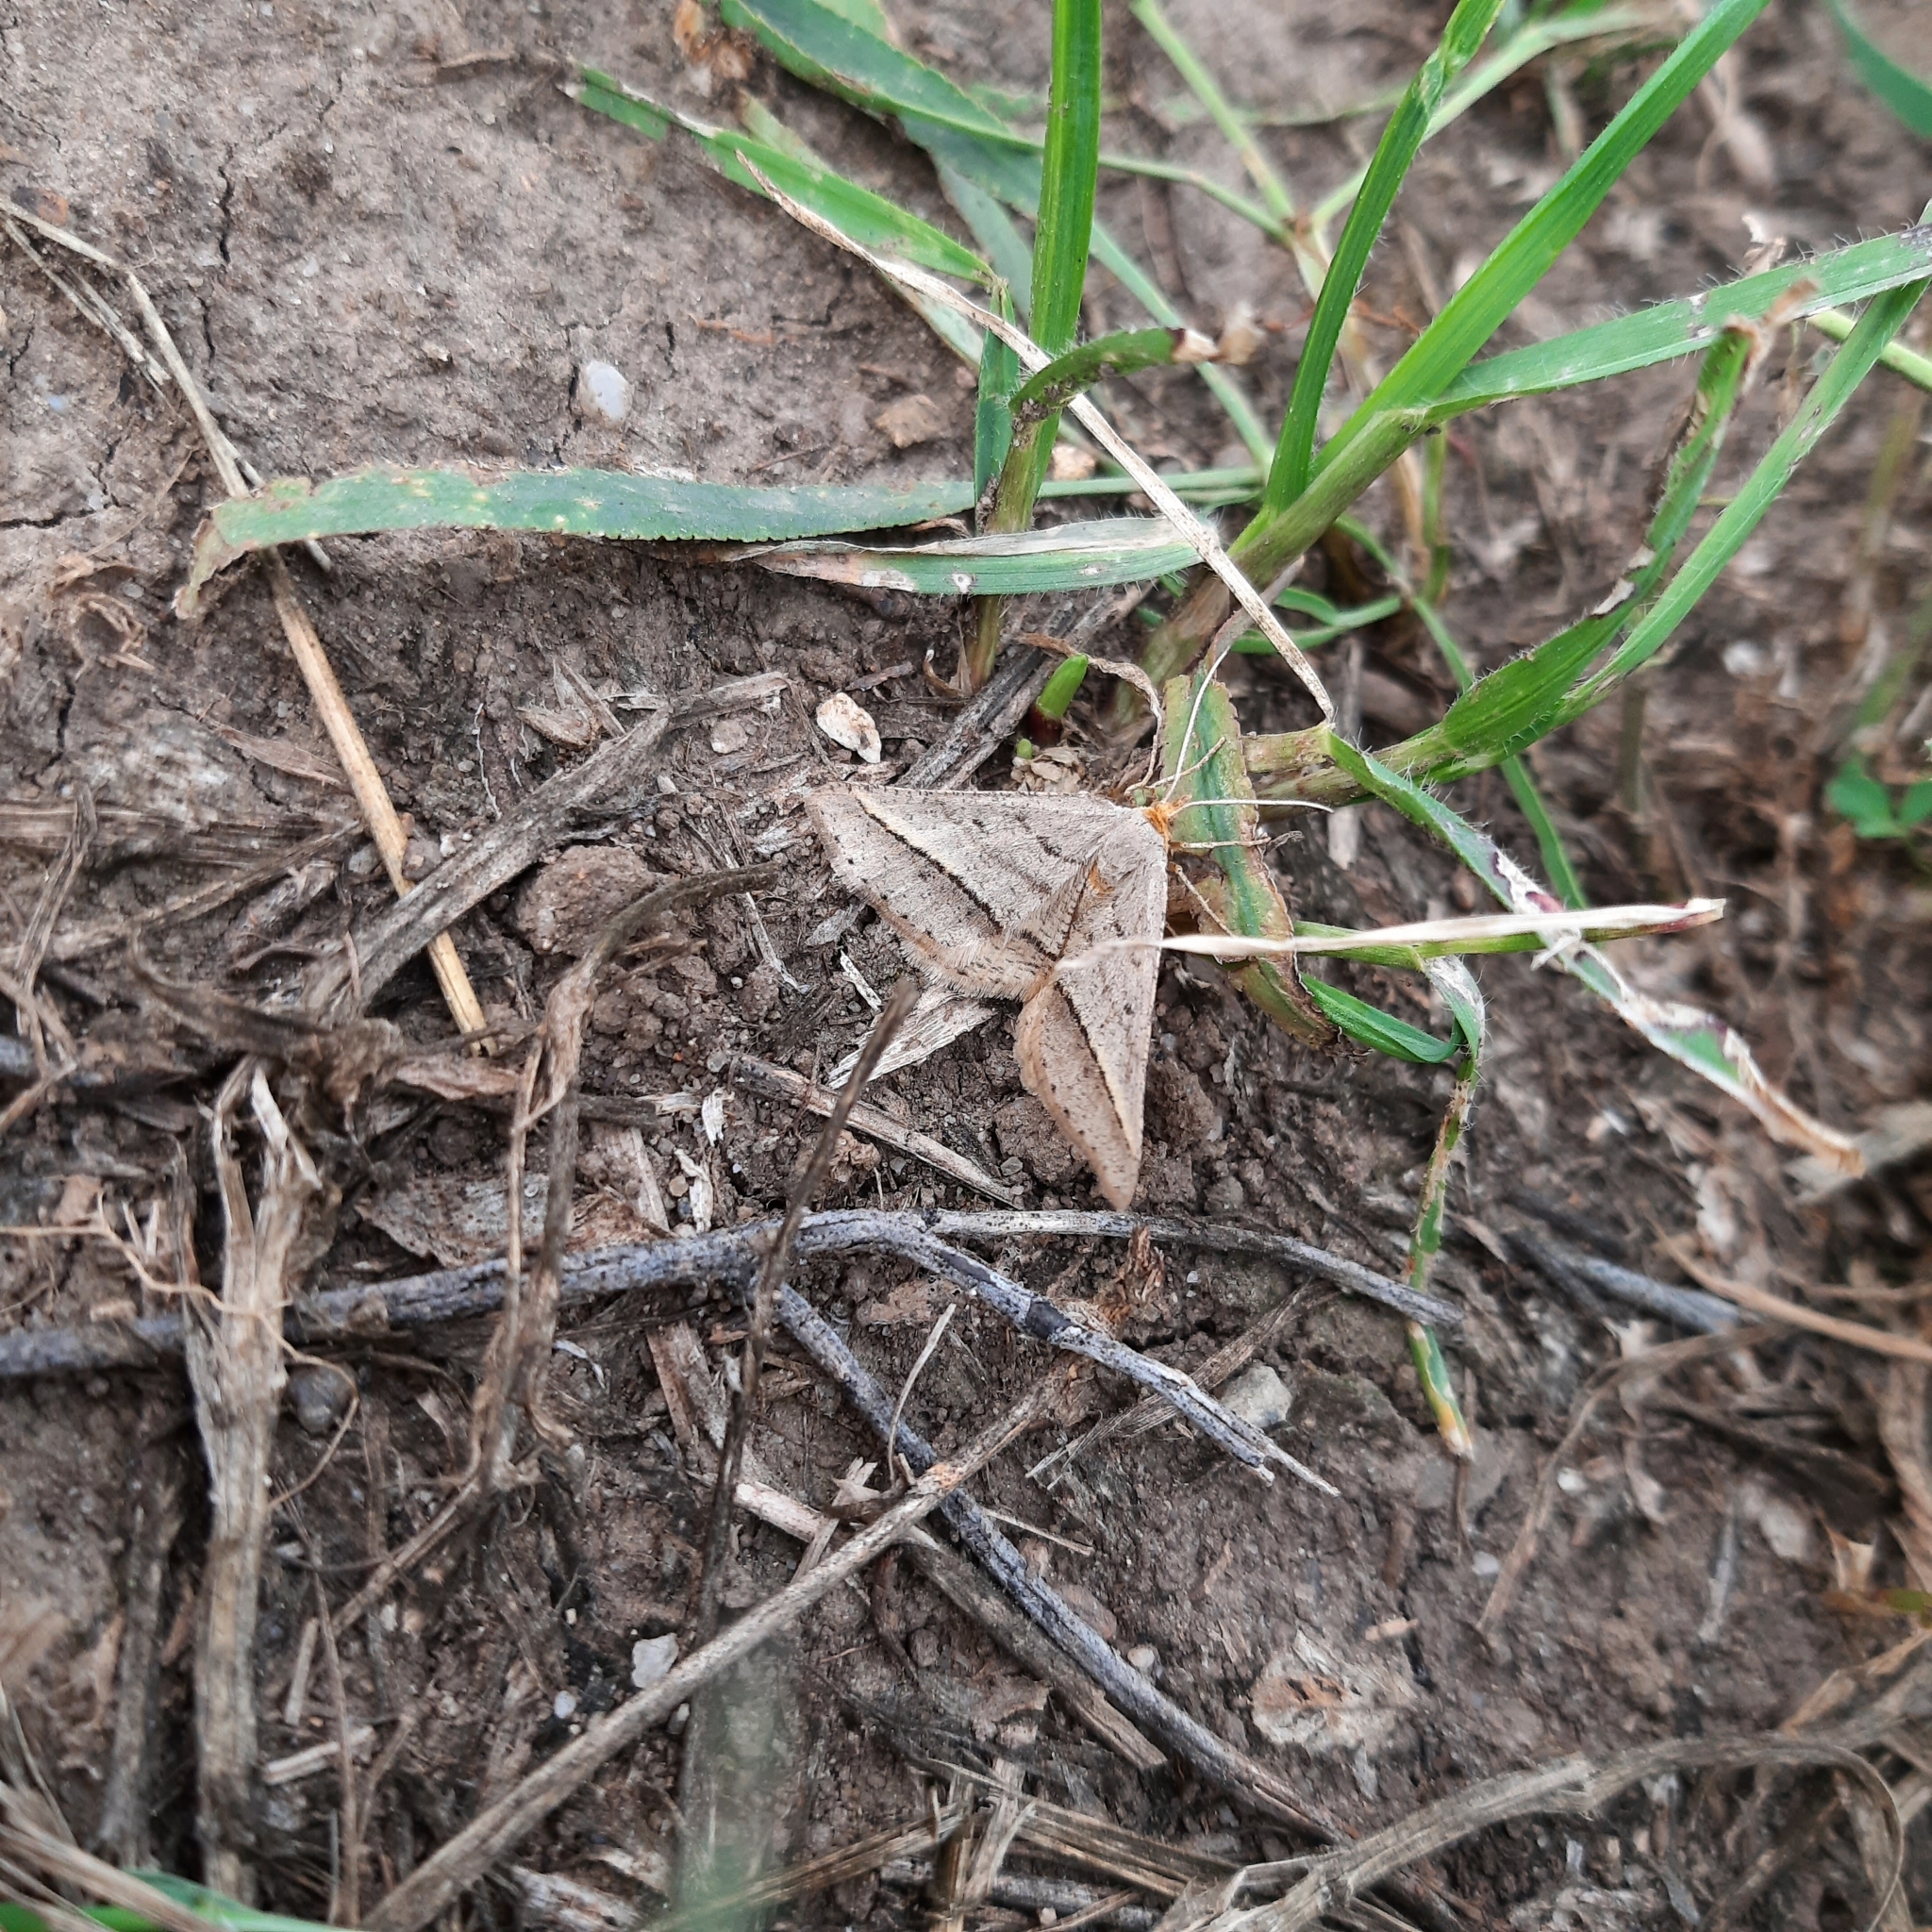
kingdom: Animalia
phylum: Arthropoda
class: Insecta
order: Lepidoptera
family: Geometridae
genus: Tephrina
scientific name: Tephrina arenacearia
